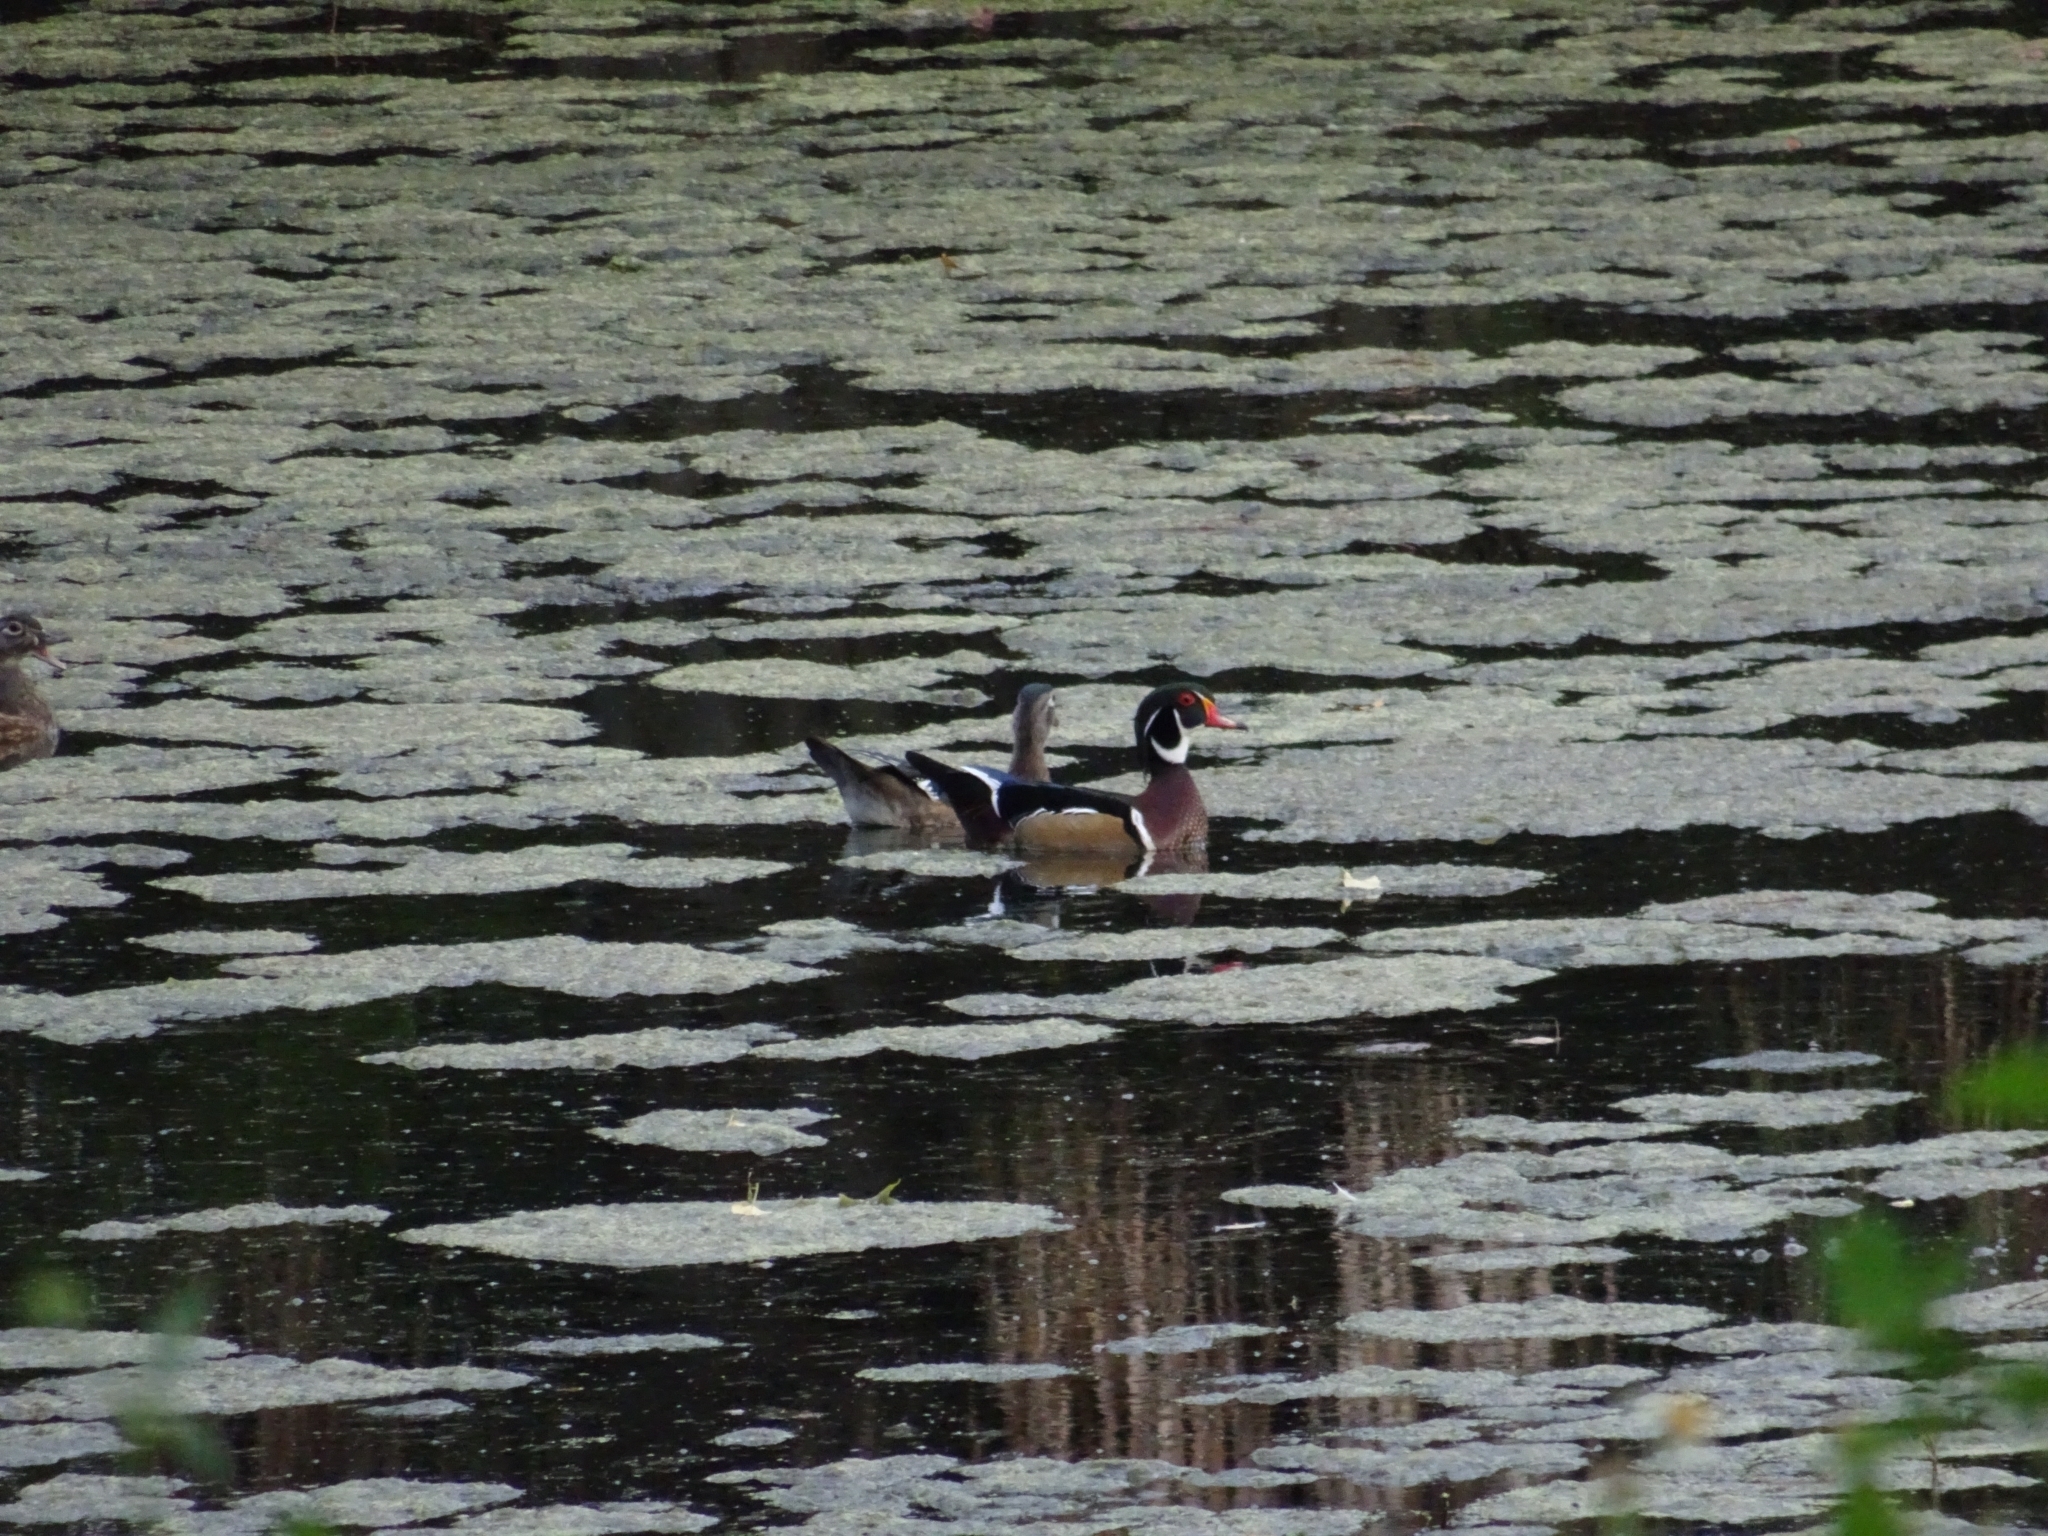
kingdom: Animalia
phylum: Chordata
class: Aves
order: Anseriformes
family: Anatidae
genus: Aix
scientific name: Aix sponsa
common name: Wood duck
